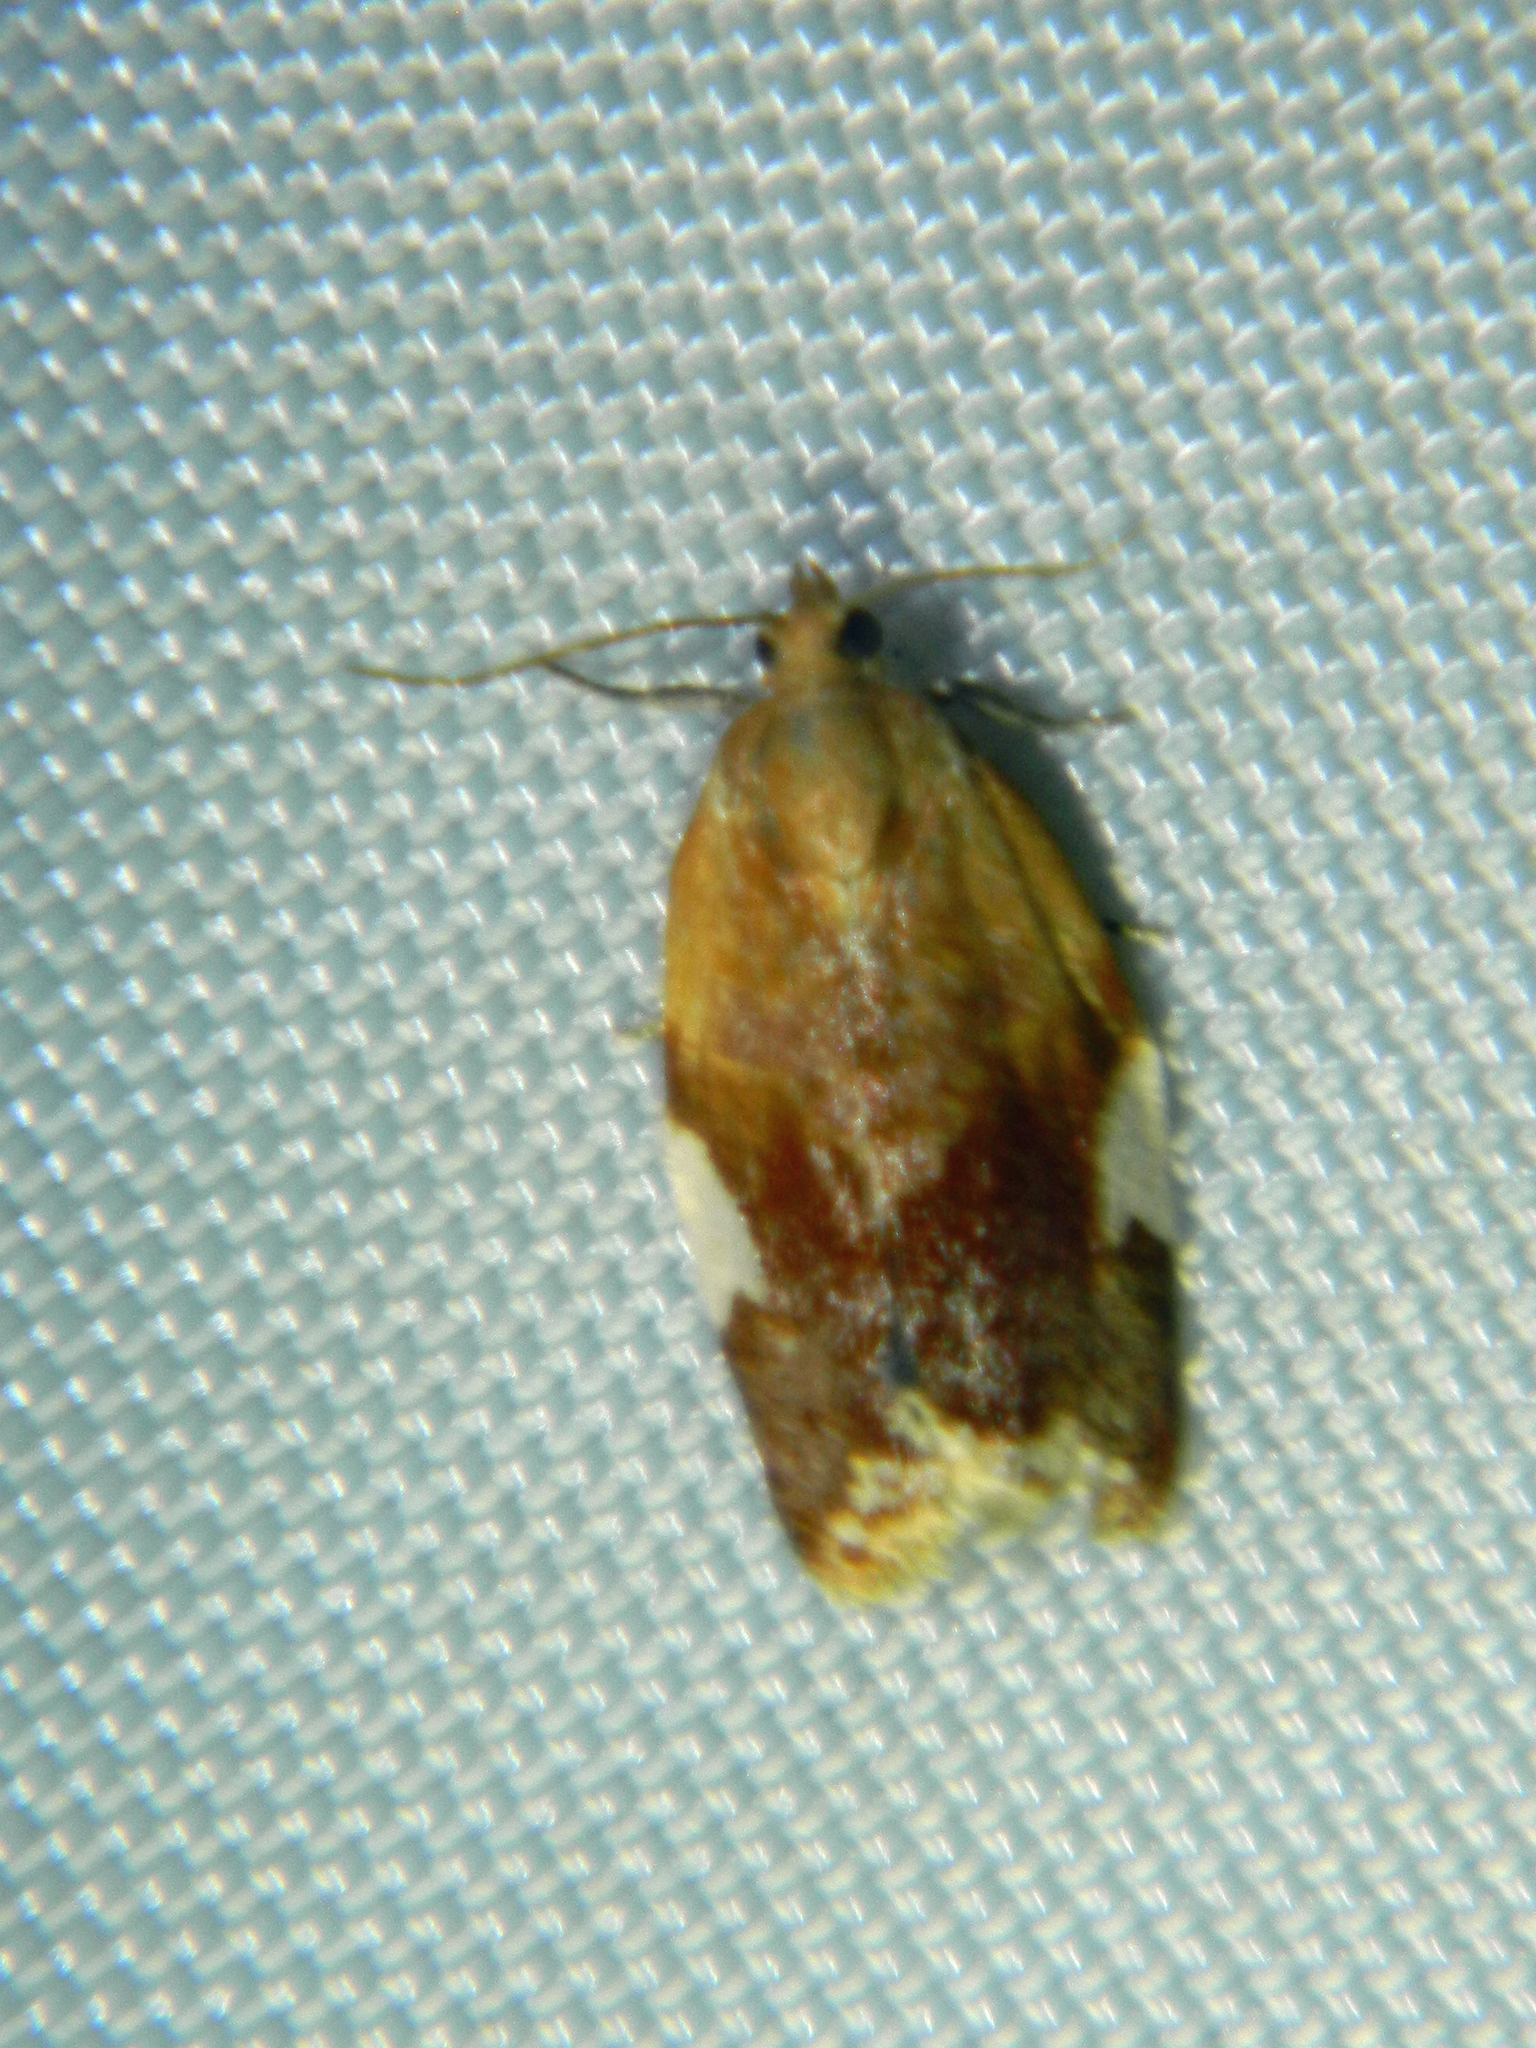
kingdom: Animalia
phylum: Arthropoda
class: Insecta
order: Lepidoptera
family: Tortricidae
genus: Clepsis
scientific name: Clepsis persicana
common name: White triangle tortrix
